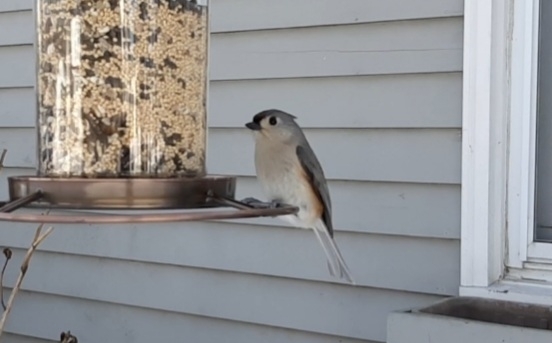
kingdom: Animalia
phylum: Chordata
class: Aves
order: Passeriformes
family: Paridae
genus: Baeolophus
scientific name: Baeolophus bicolor
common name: Tufted titmouse
